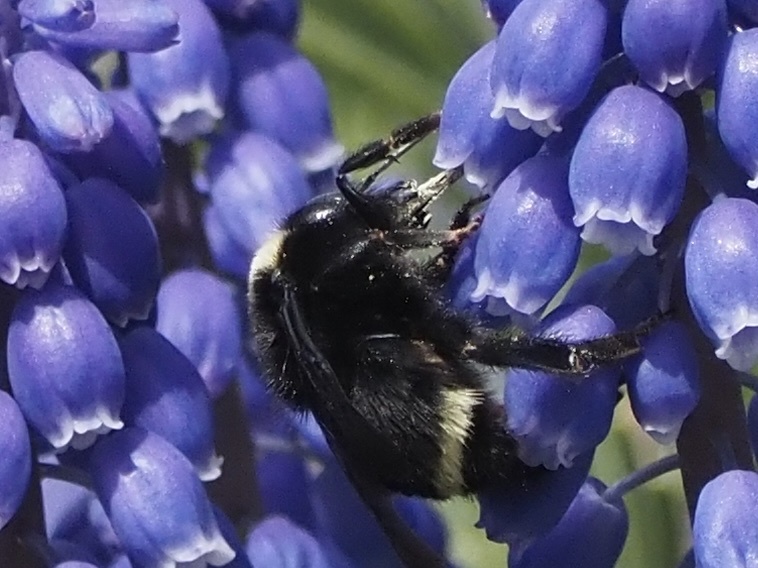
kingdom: Animalia
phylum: Arthropoda
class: Insecta
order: Hymenoptera
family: Apidae
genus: Bombus
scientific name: Bombus vosnesenskii
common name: Vosnesensky bumble bee
